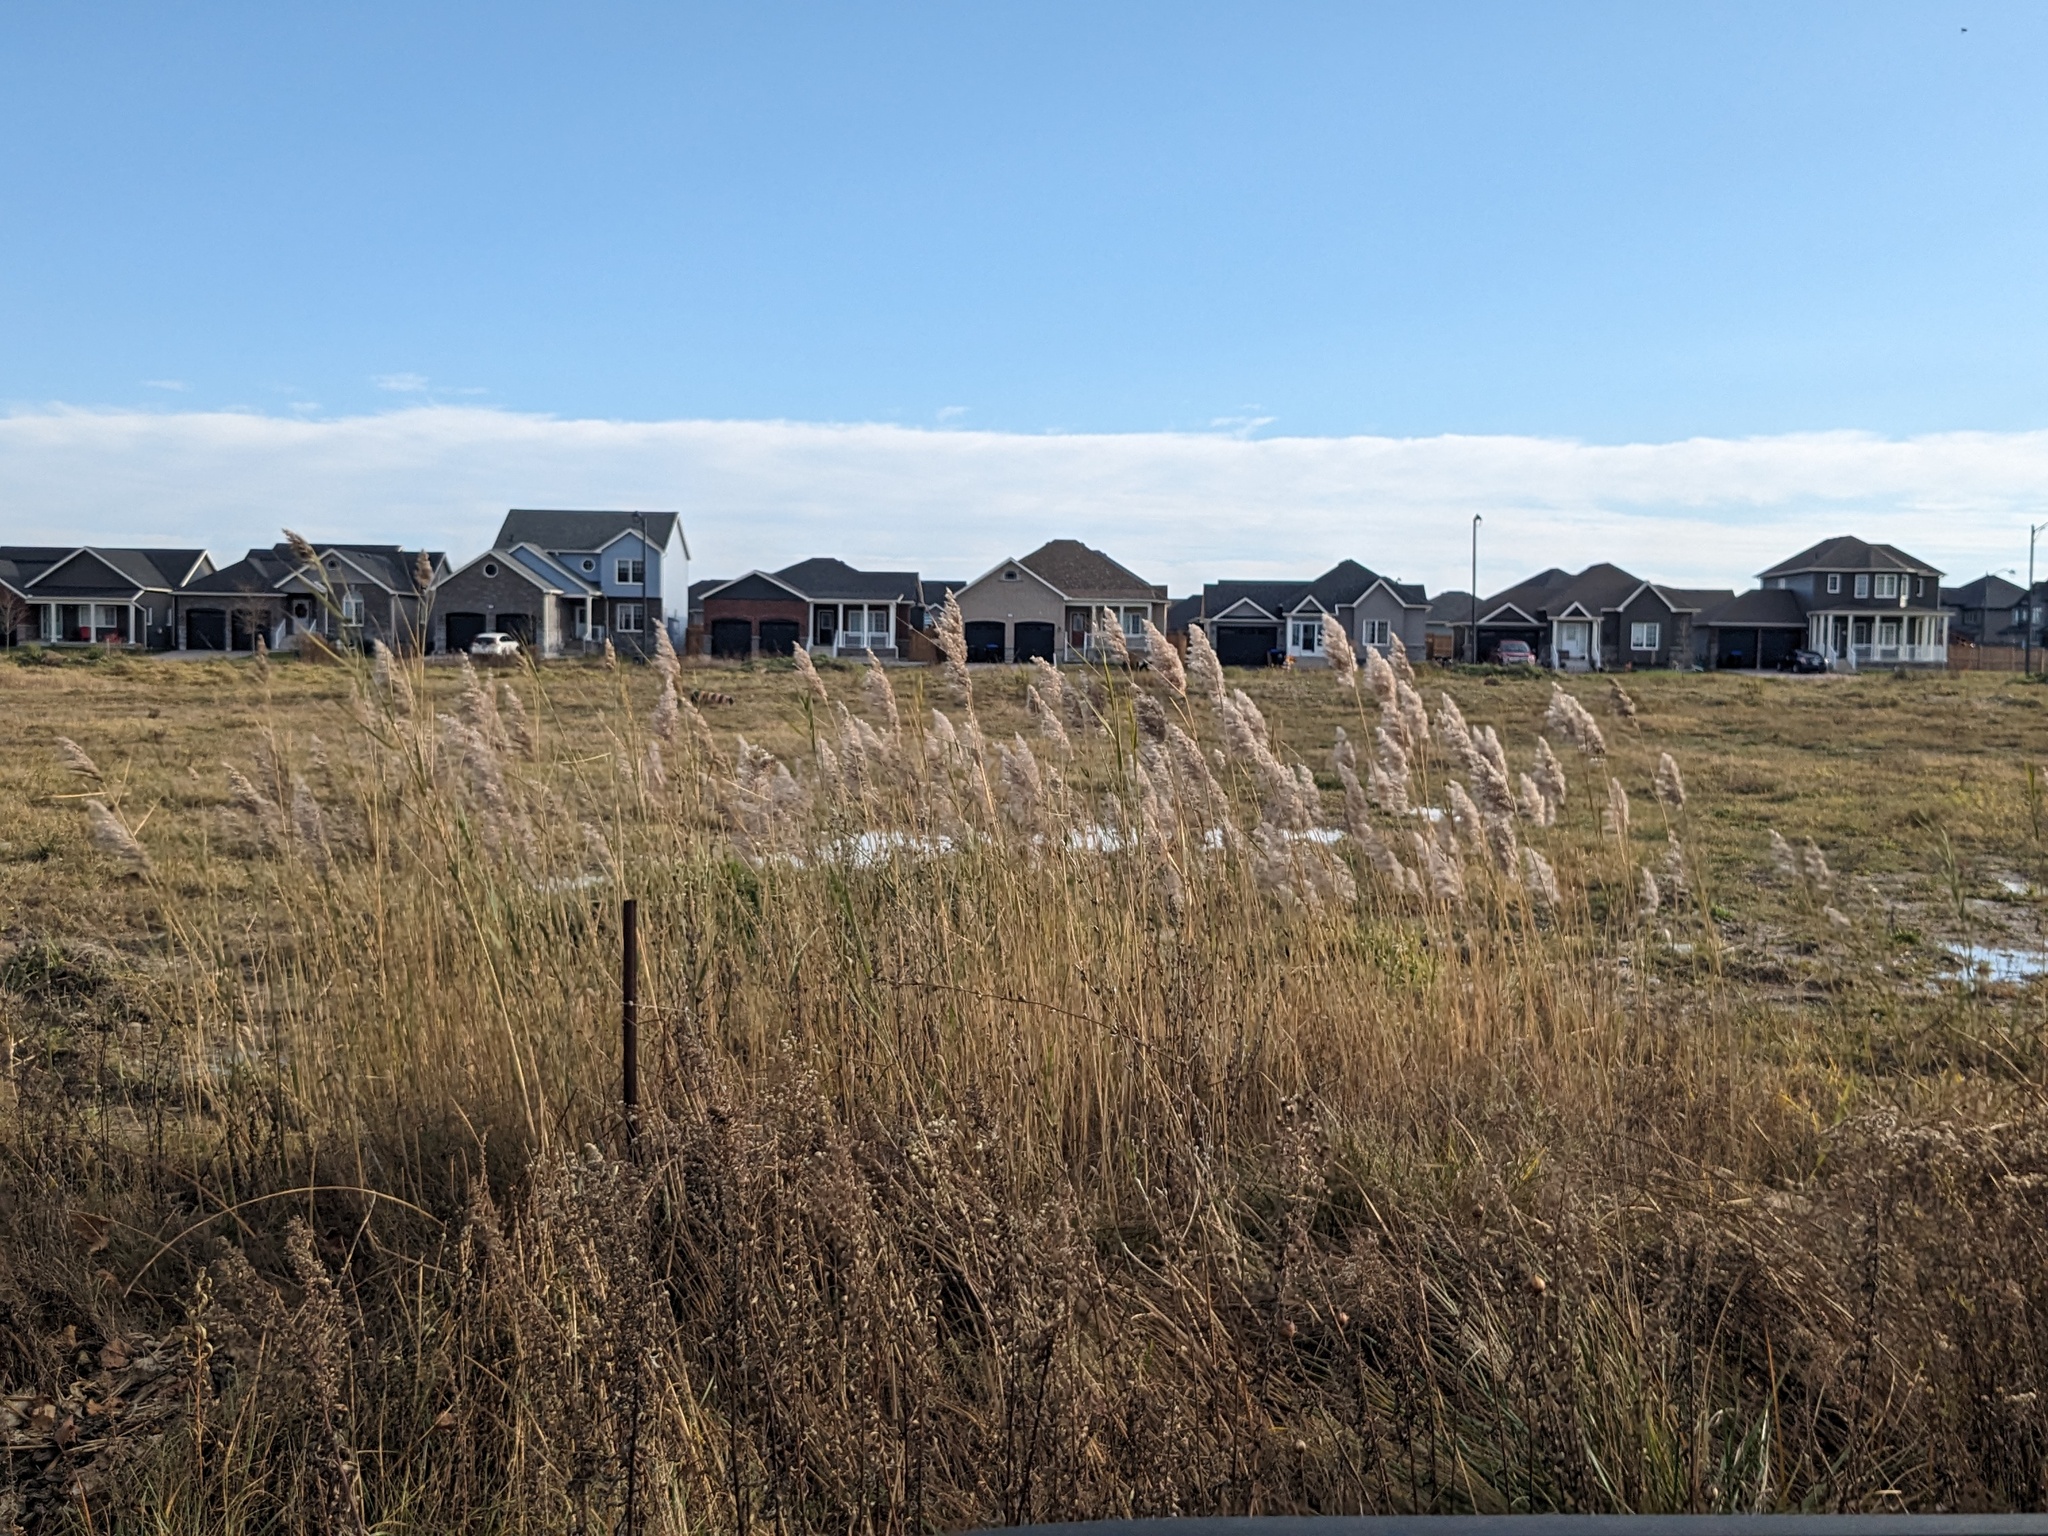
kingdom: Plantae
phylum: Tracheophyta
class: Liliopsida
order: Poales
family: Poaceae
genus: Phragmites
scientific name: Phragmites australis
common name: Common reed
